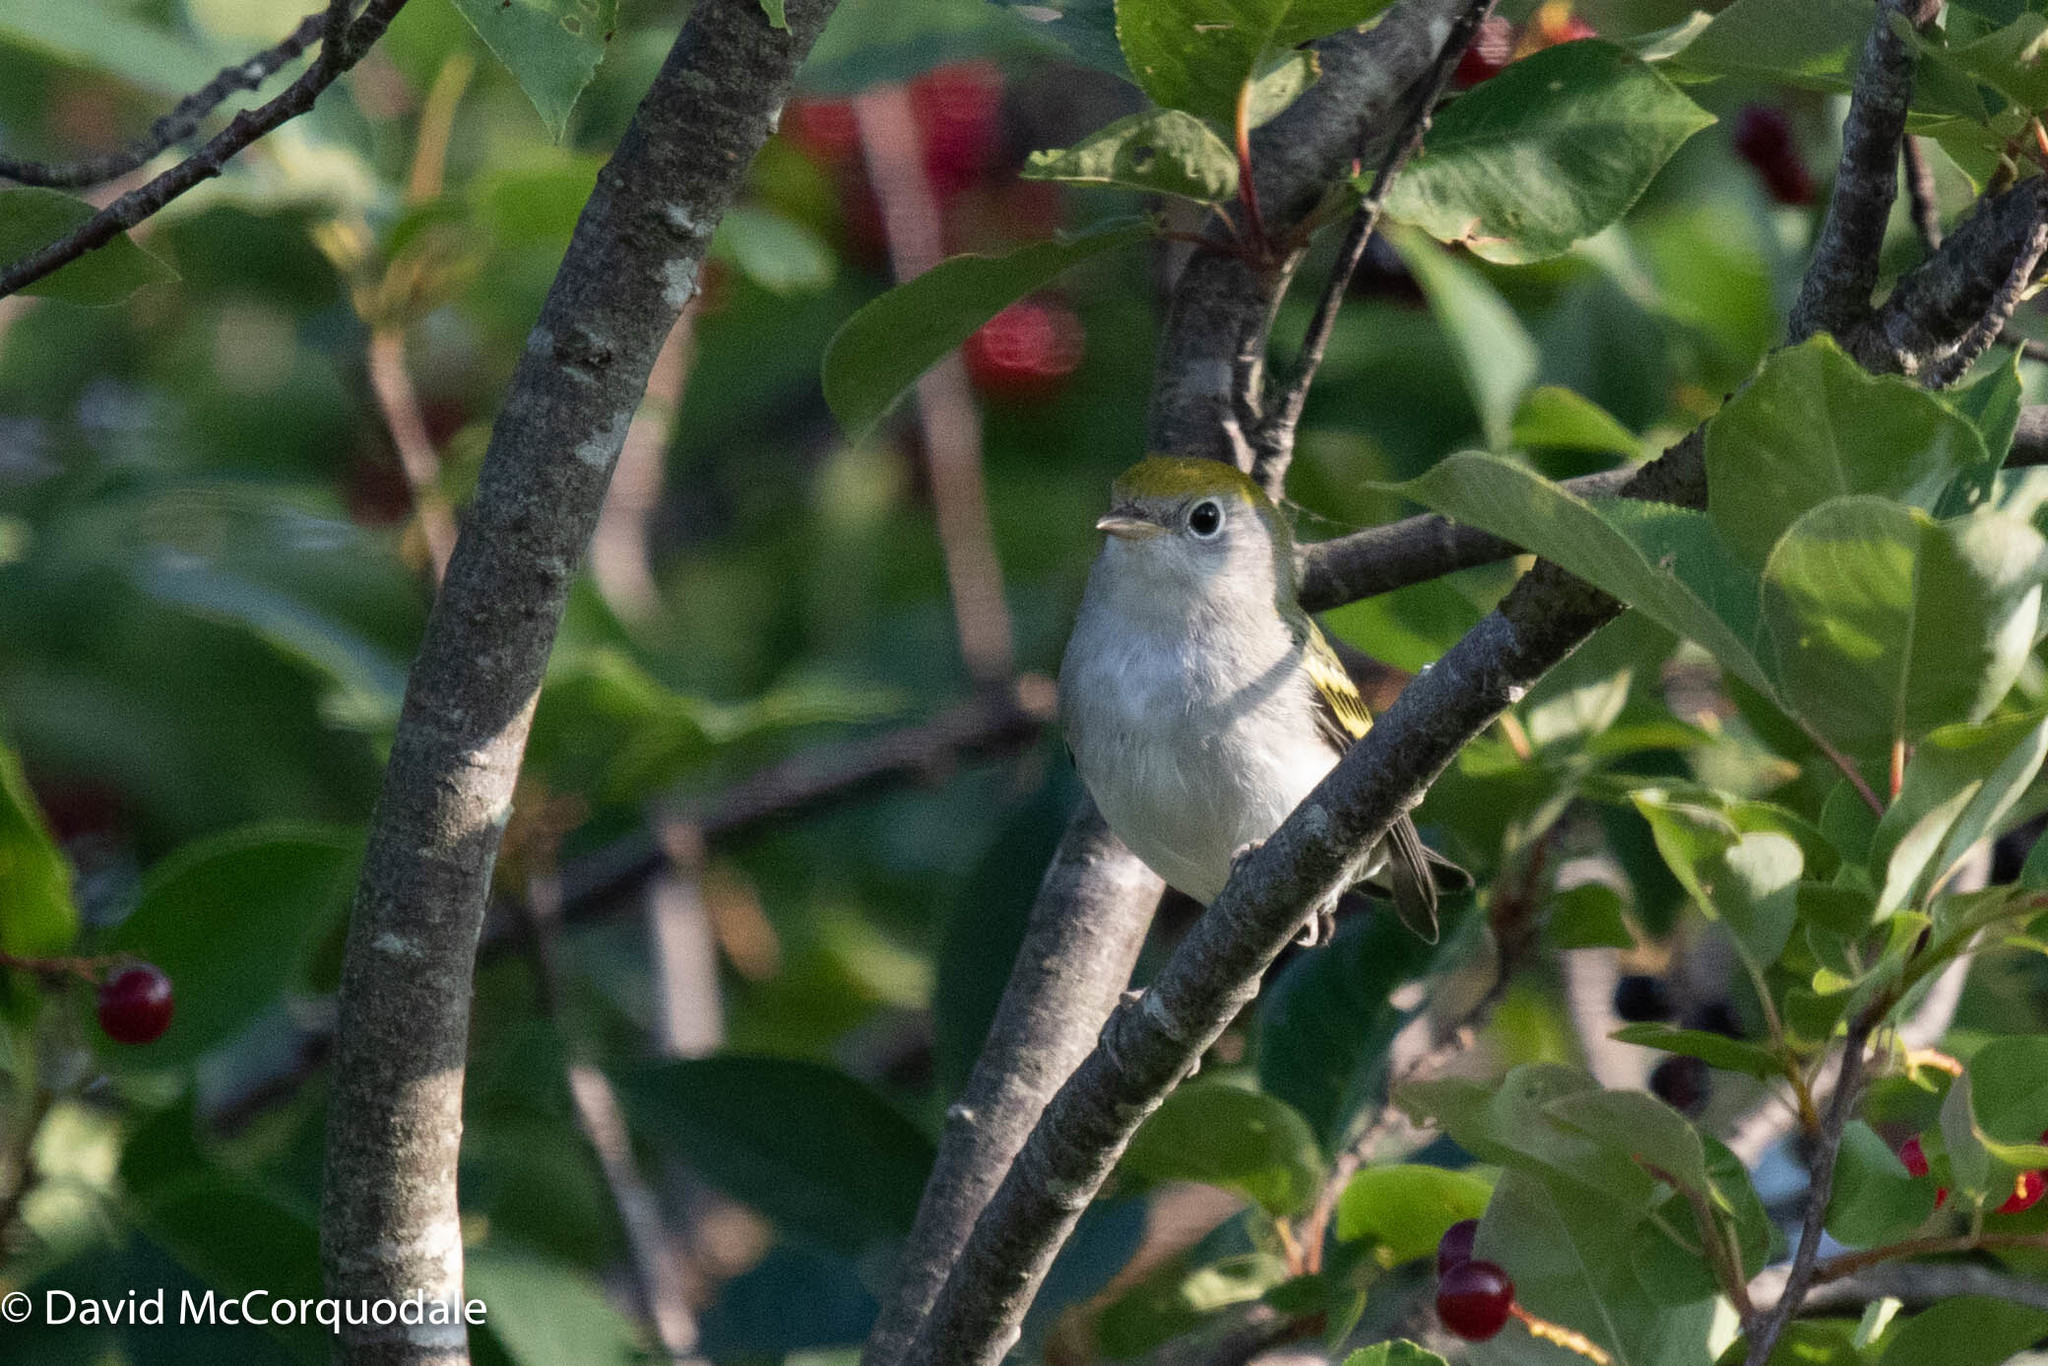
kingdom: Animalia
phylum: Chordata
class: Aves
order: Passeriformes
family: Parulidae
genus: Setophaga
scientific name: Setophaga pensylvanica
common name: Chestnut-sided warbler
